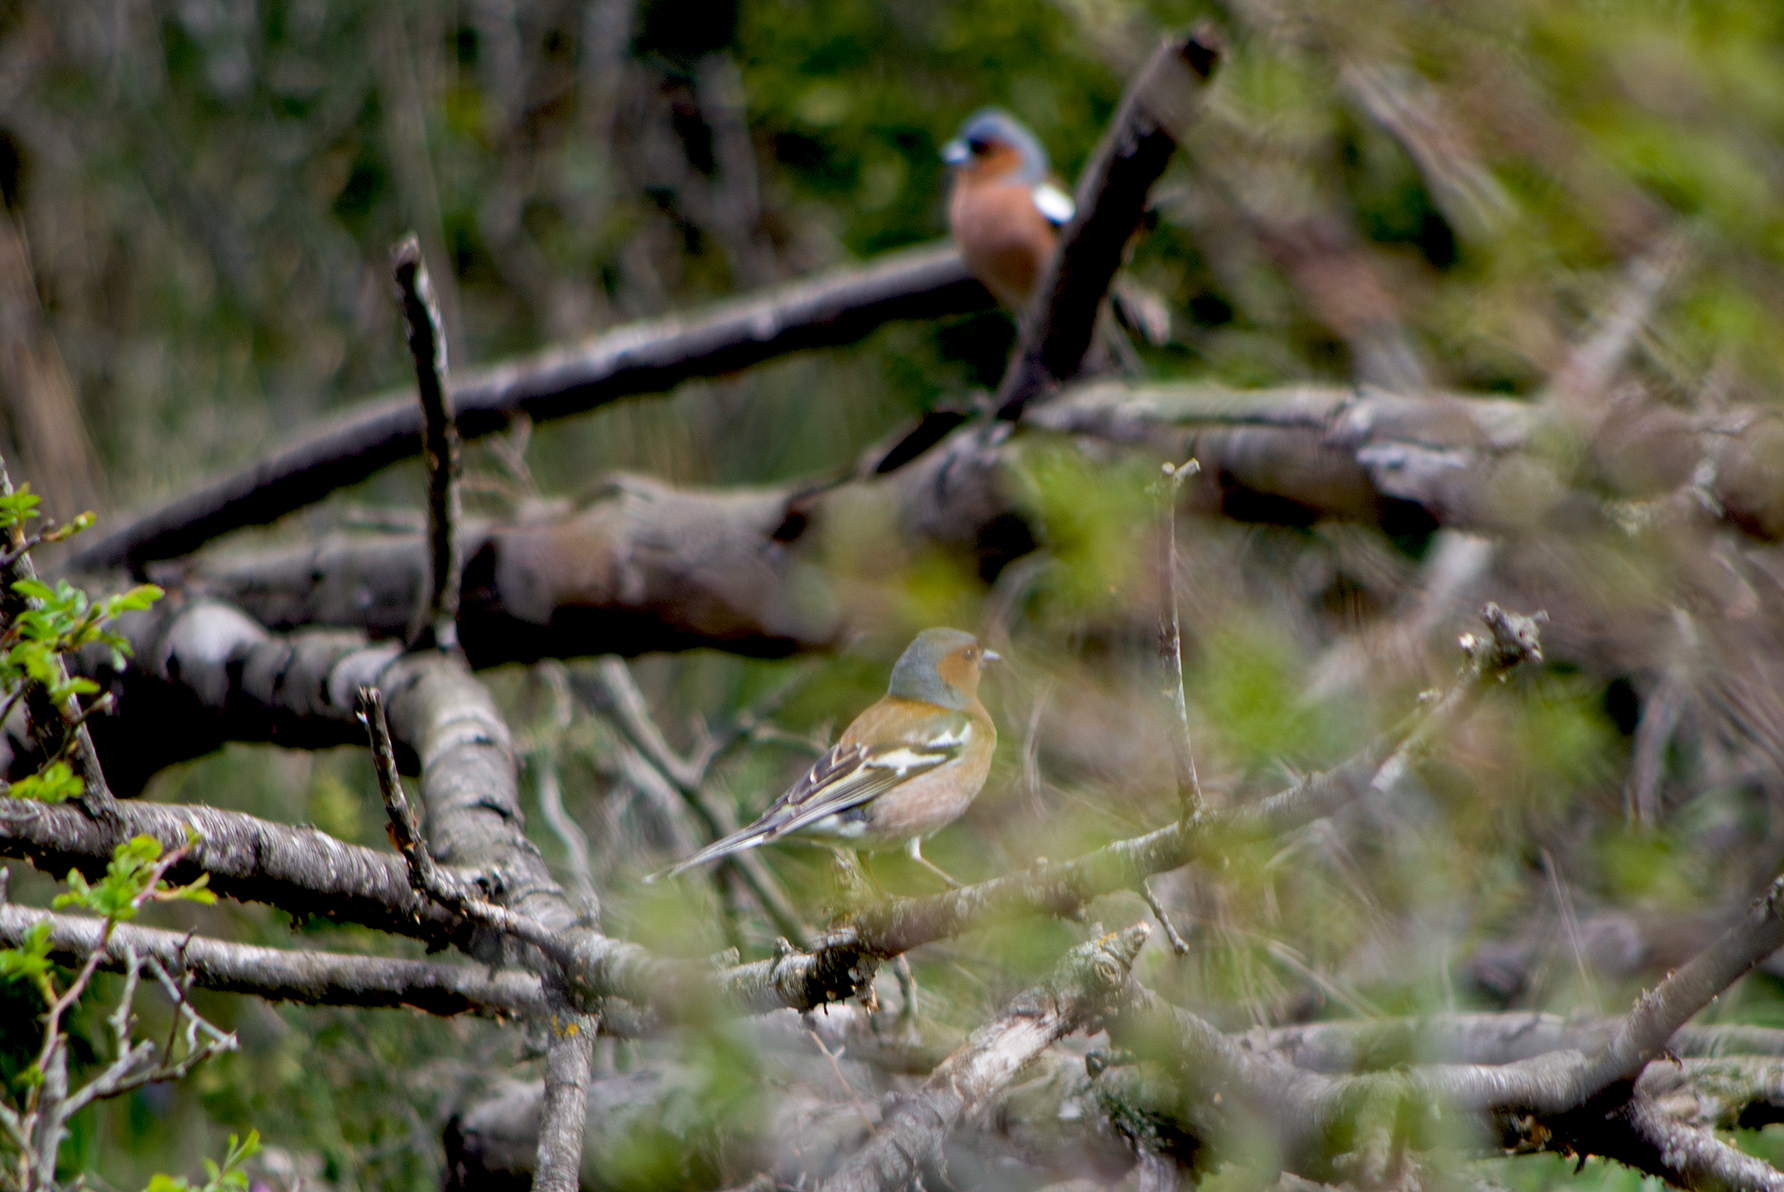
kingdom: Animalia
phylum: Chordata
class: Aves
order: Passeriformes
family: Fringillidae
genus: Fringilla
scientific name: Fringilla coelebs
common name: Common chaffinch
